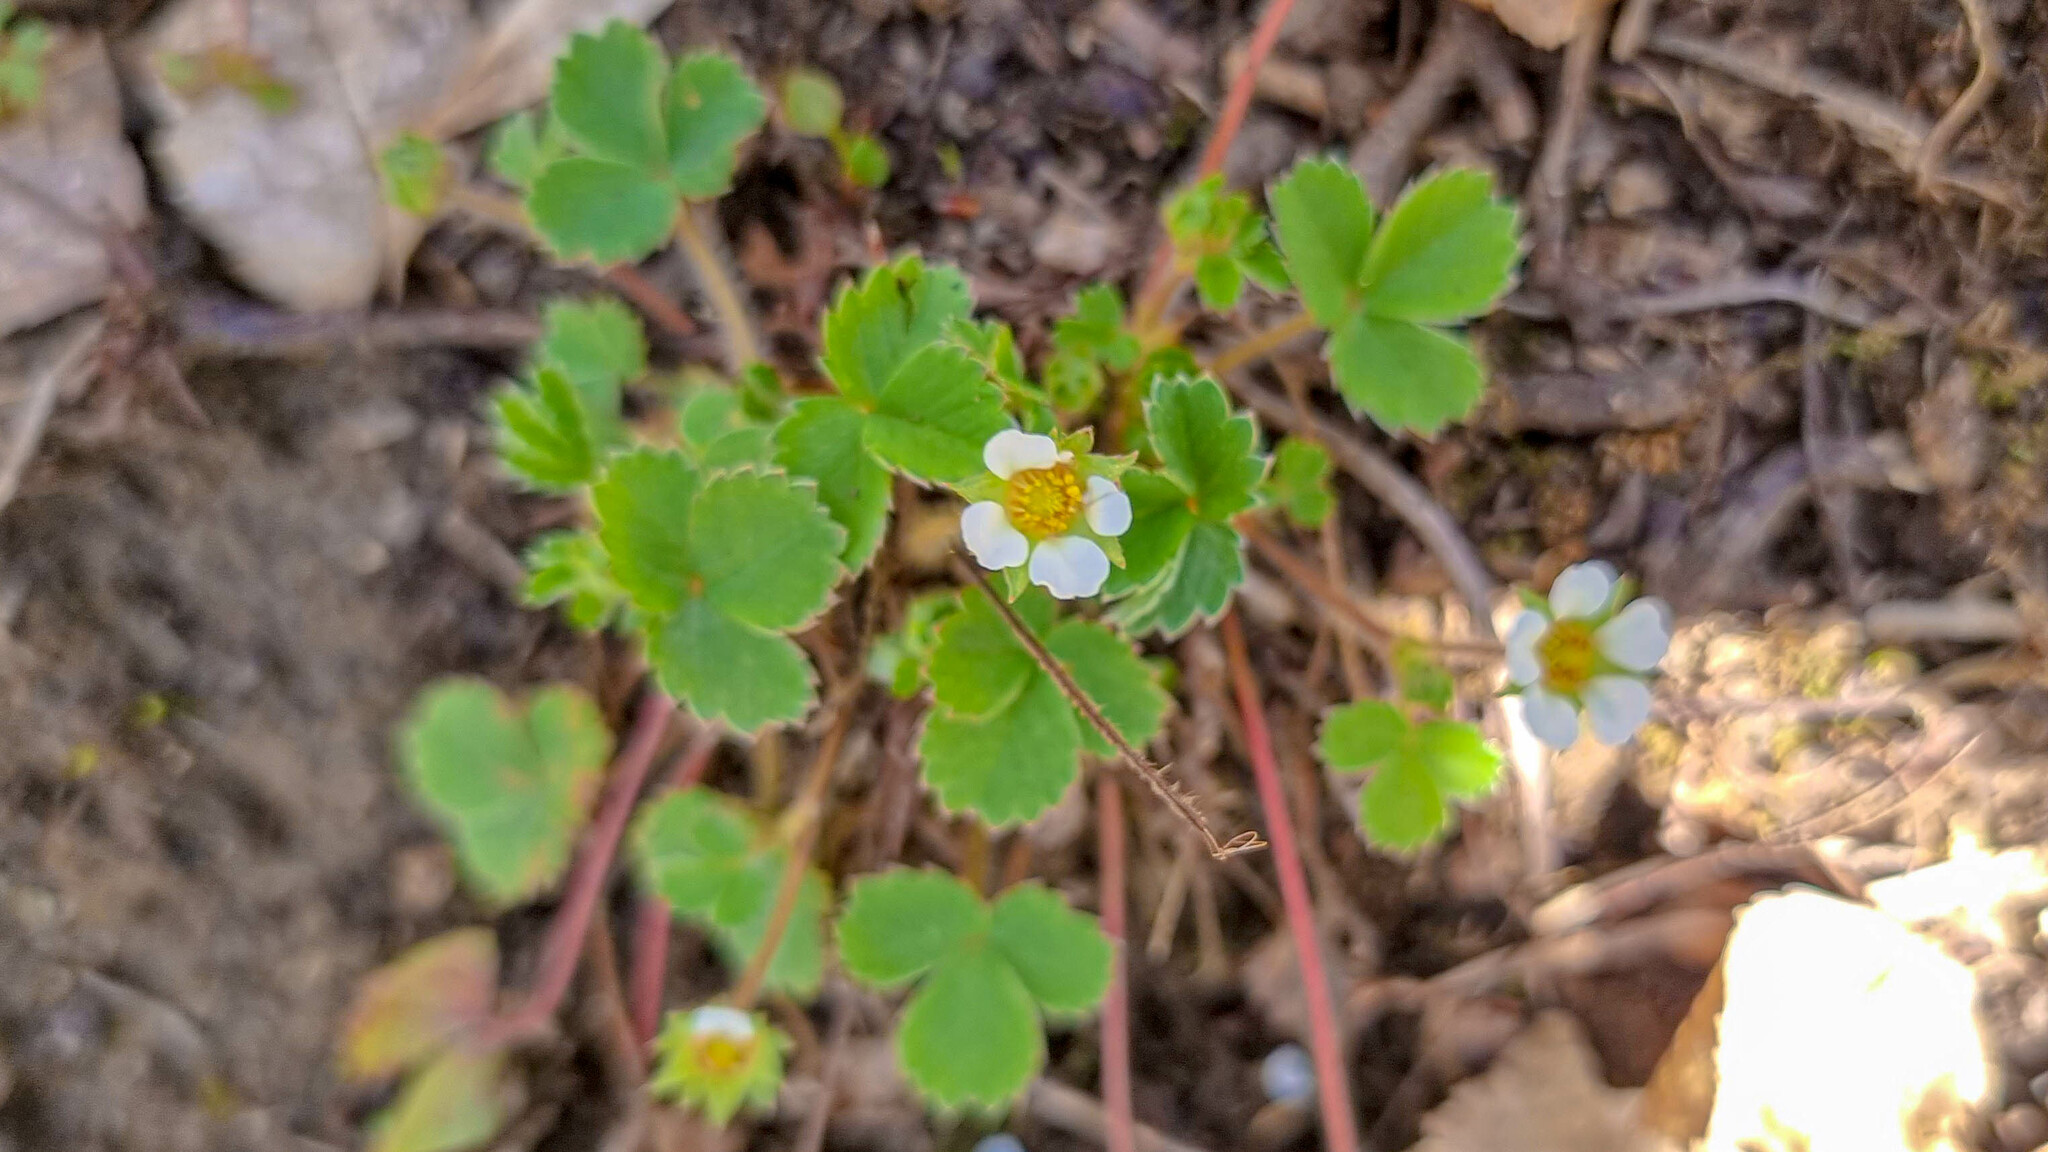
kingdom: Plantae
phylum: Tracheophyta
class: Magnoliopsida
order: Rosales
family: Rosaceae
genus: Potentilla
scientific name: Potentilla sterilis
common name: Barren strawberry
